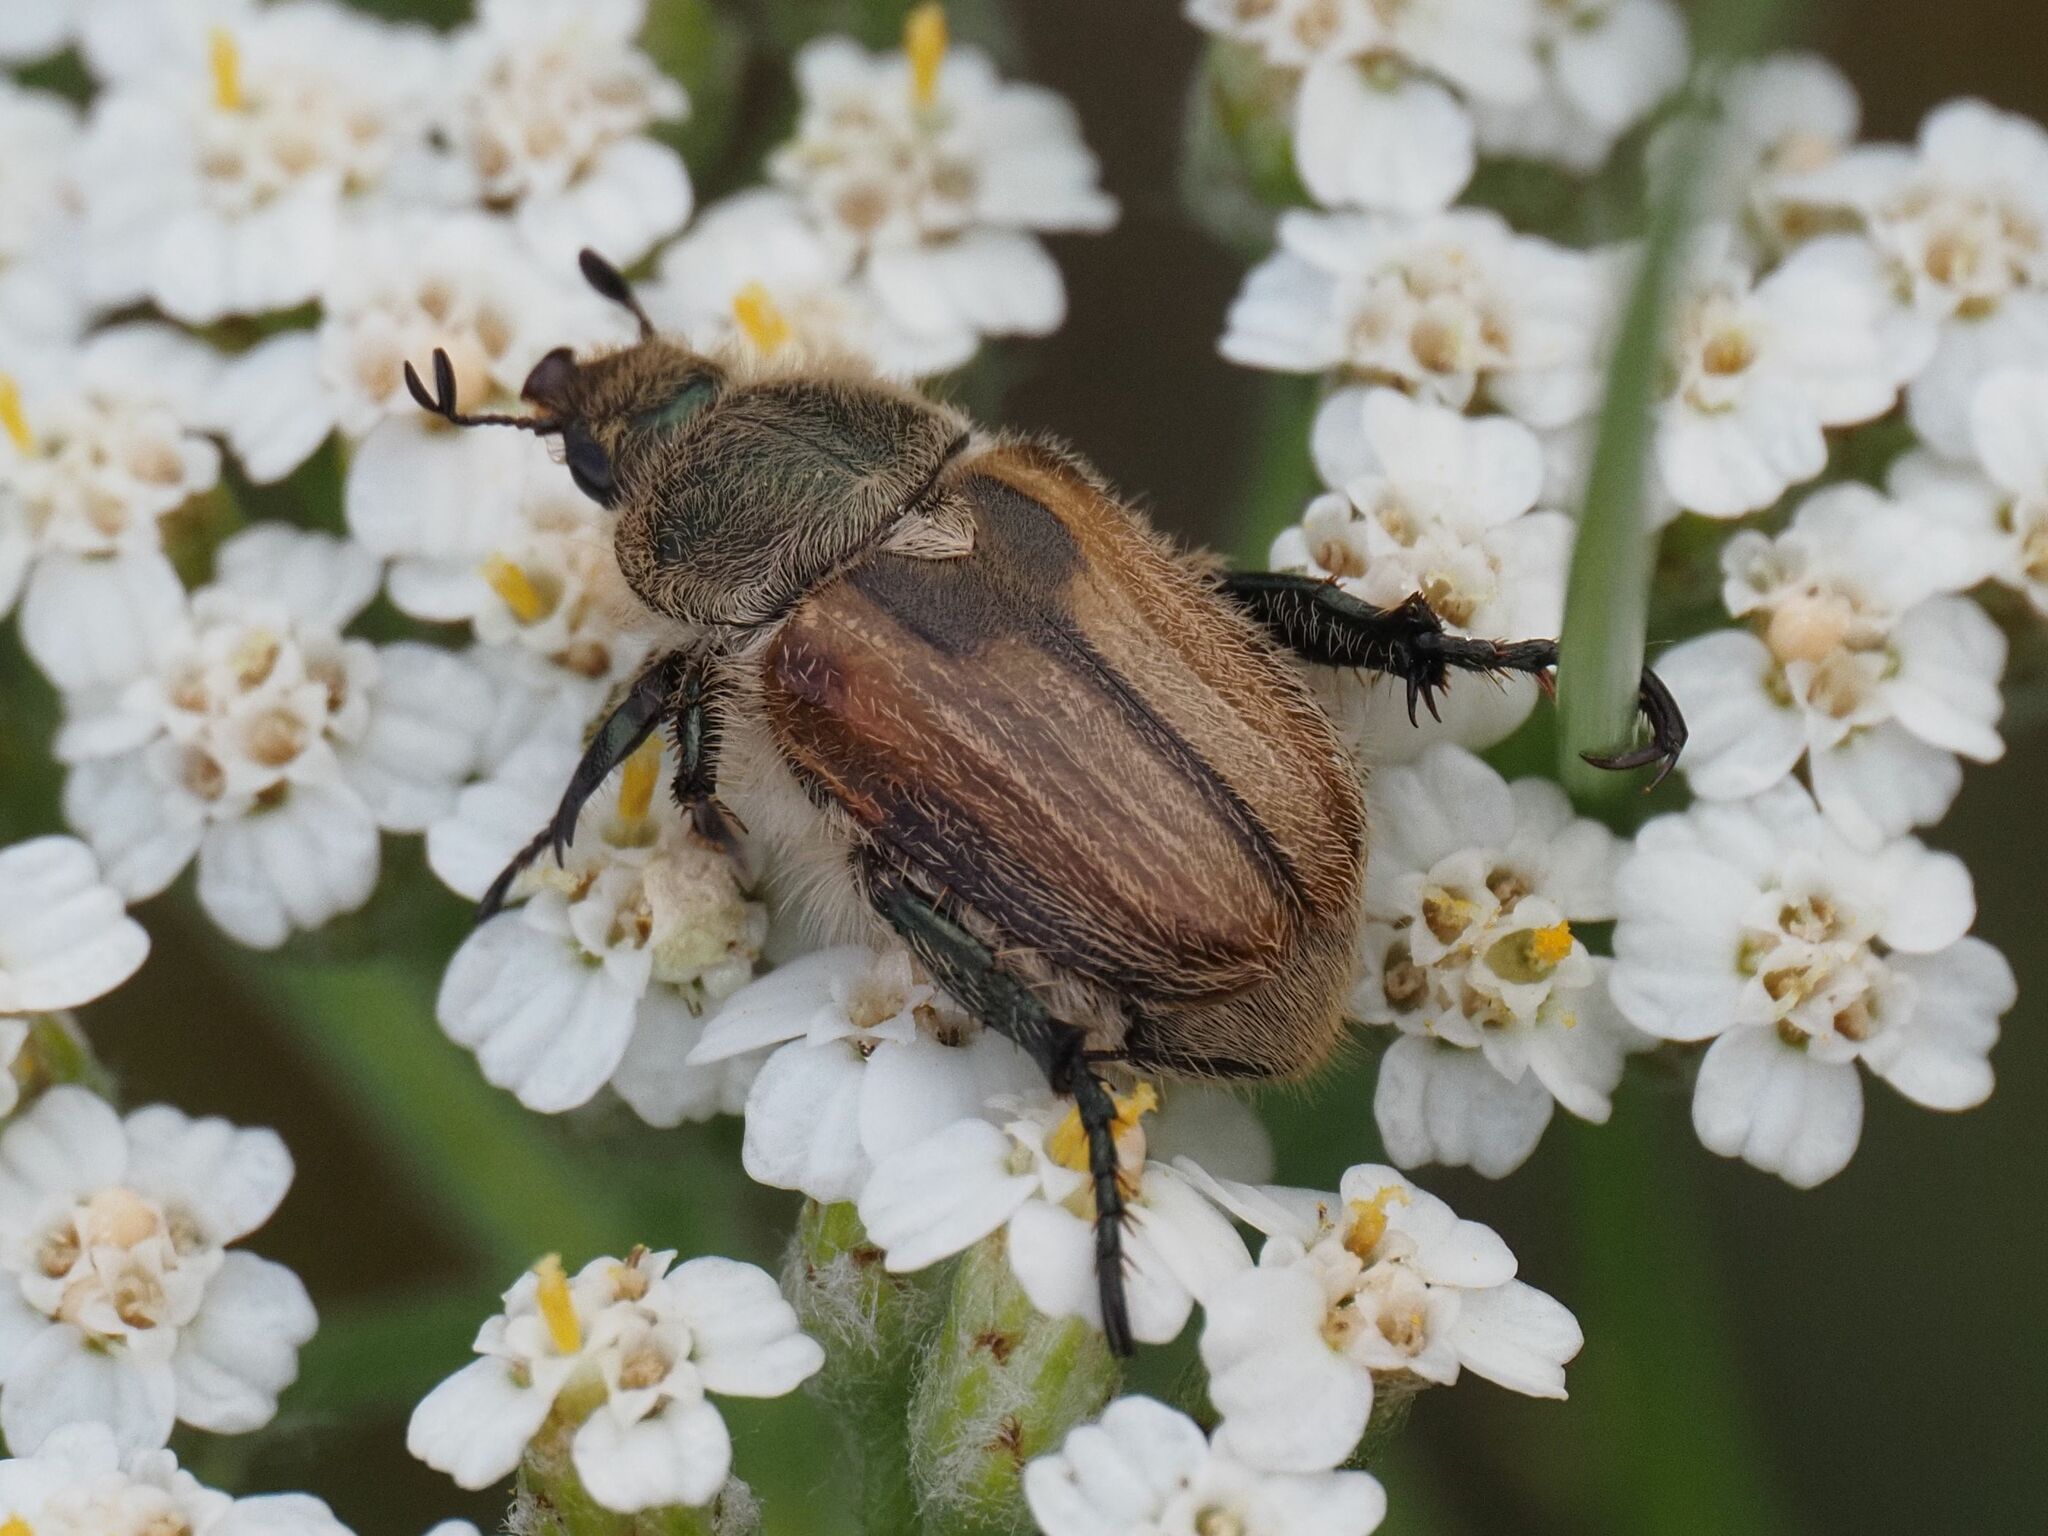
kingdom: Animalia
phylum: Arthropoda
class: Insecta
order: Coleoptera
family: Scarabaeidae
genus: Chaetopteroplia
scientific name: Chaetopteroplia segetum
